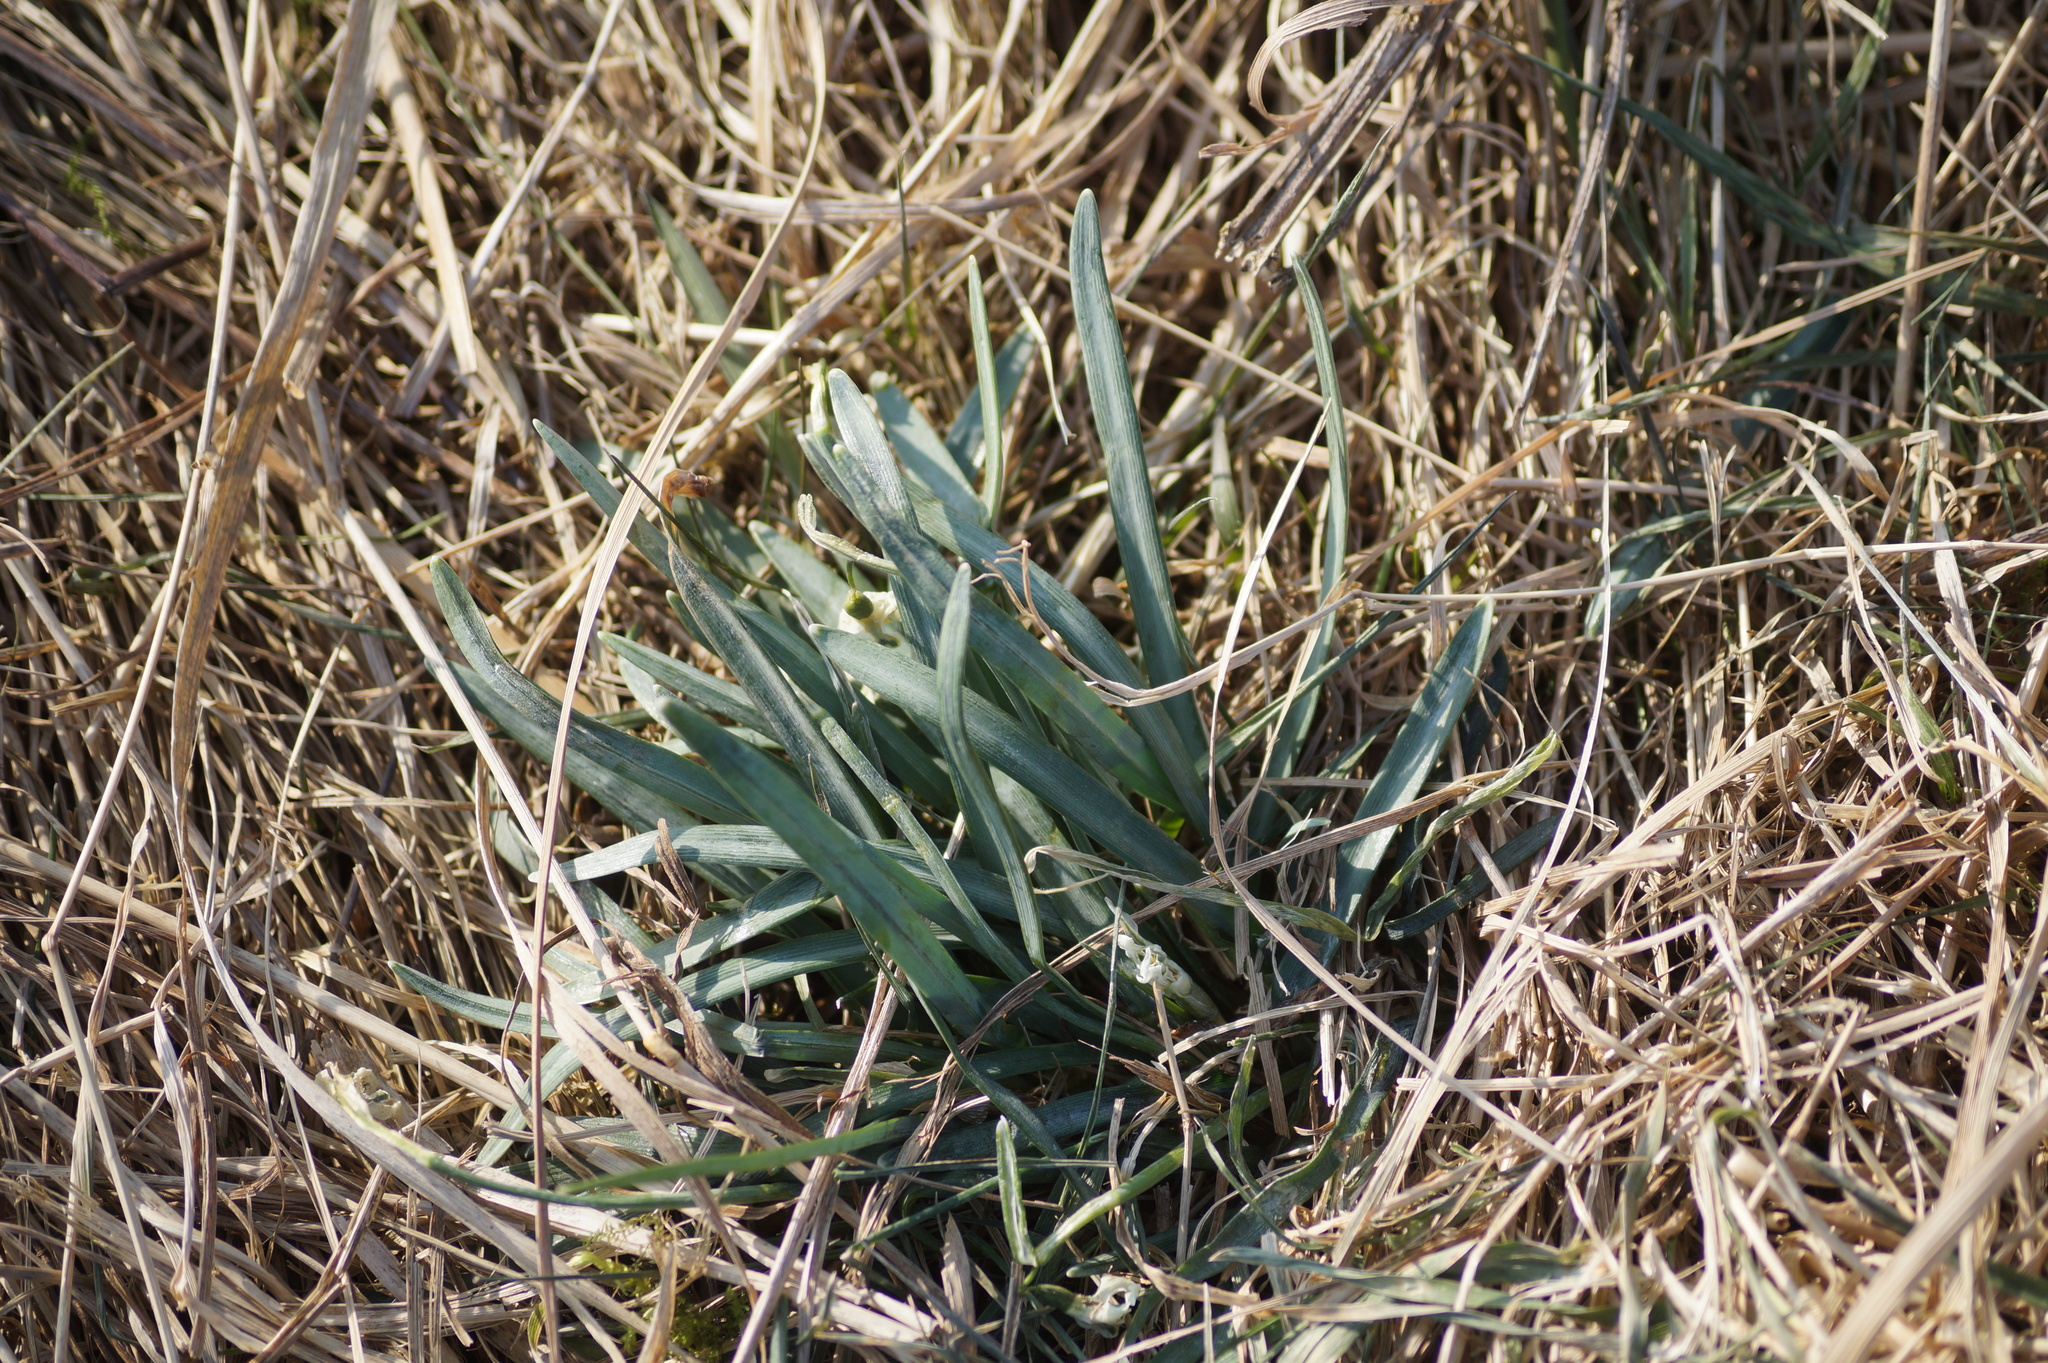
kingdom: Plantae
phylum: Tracheophyta
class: Liliopsida
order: Asparagales
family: Amaryllidaceae
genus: Galanthus
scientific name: Galanthus nivalis
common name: Snowdrop
